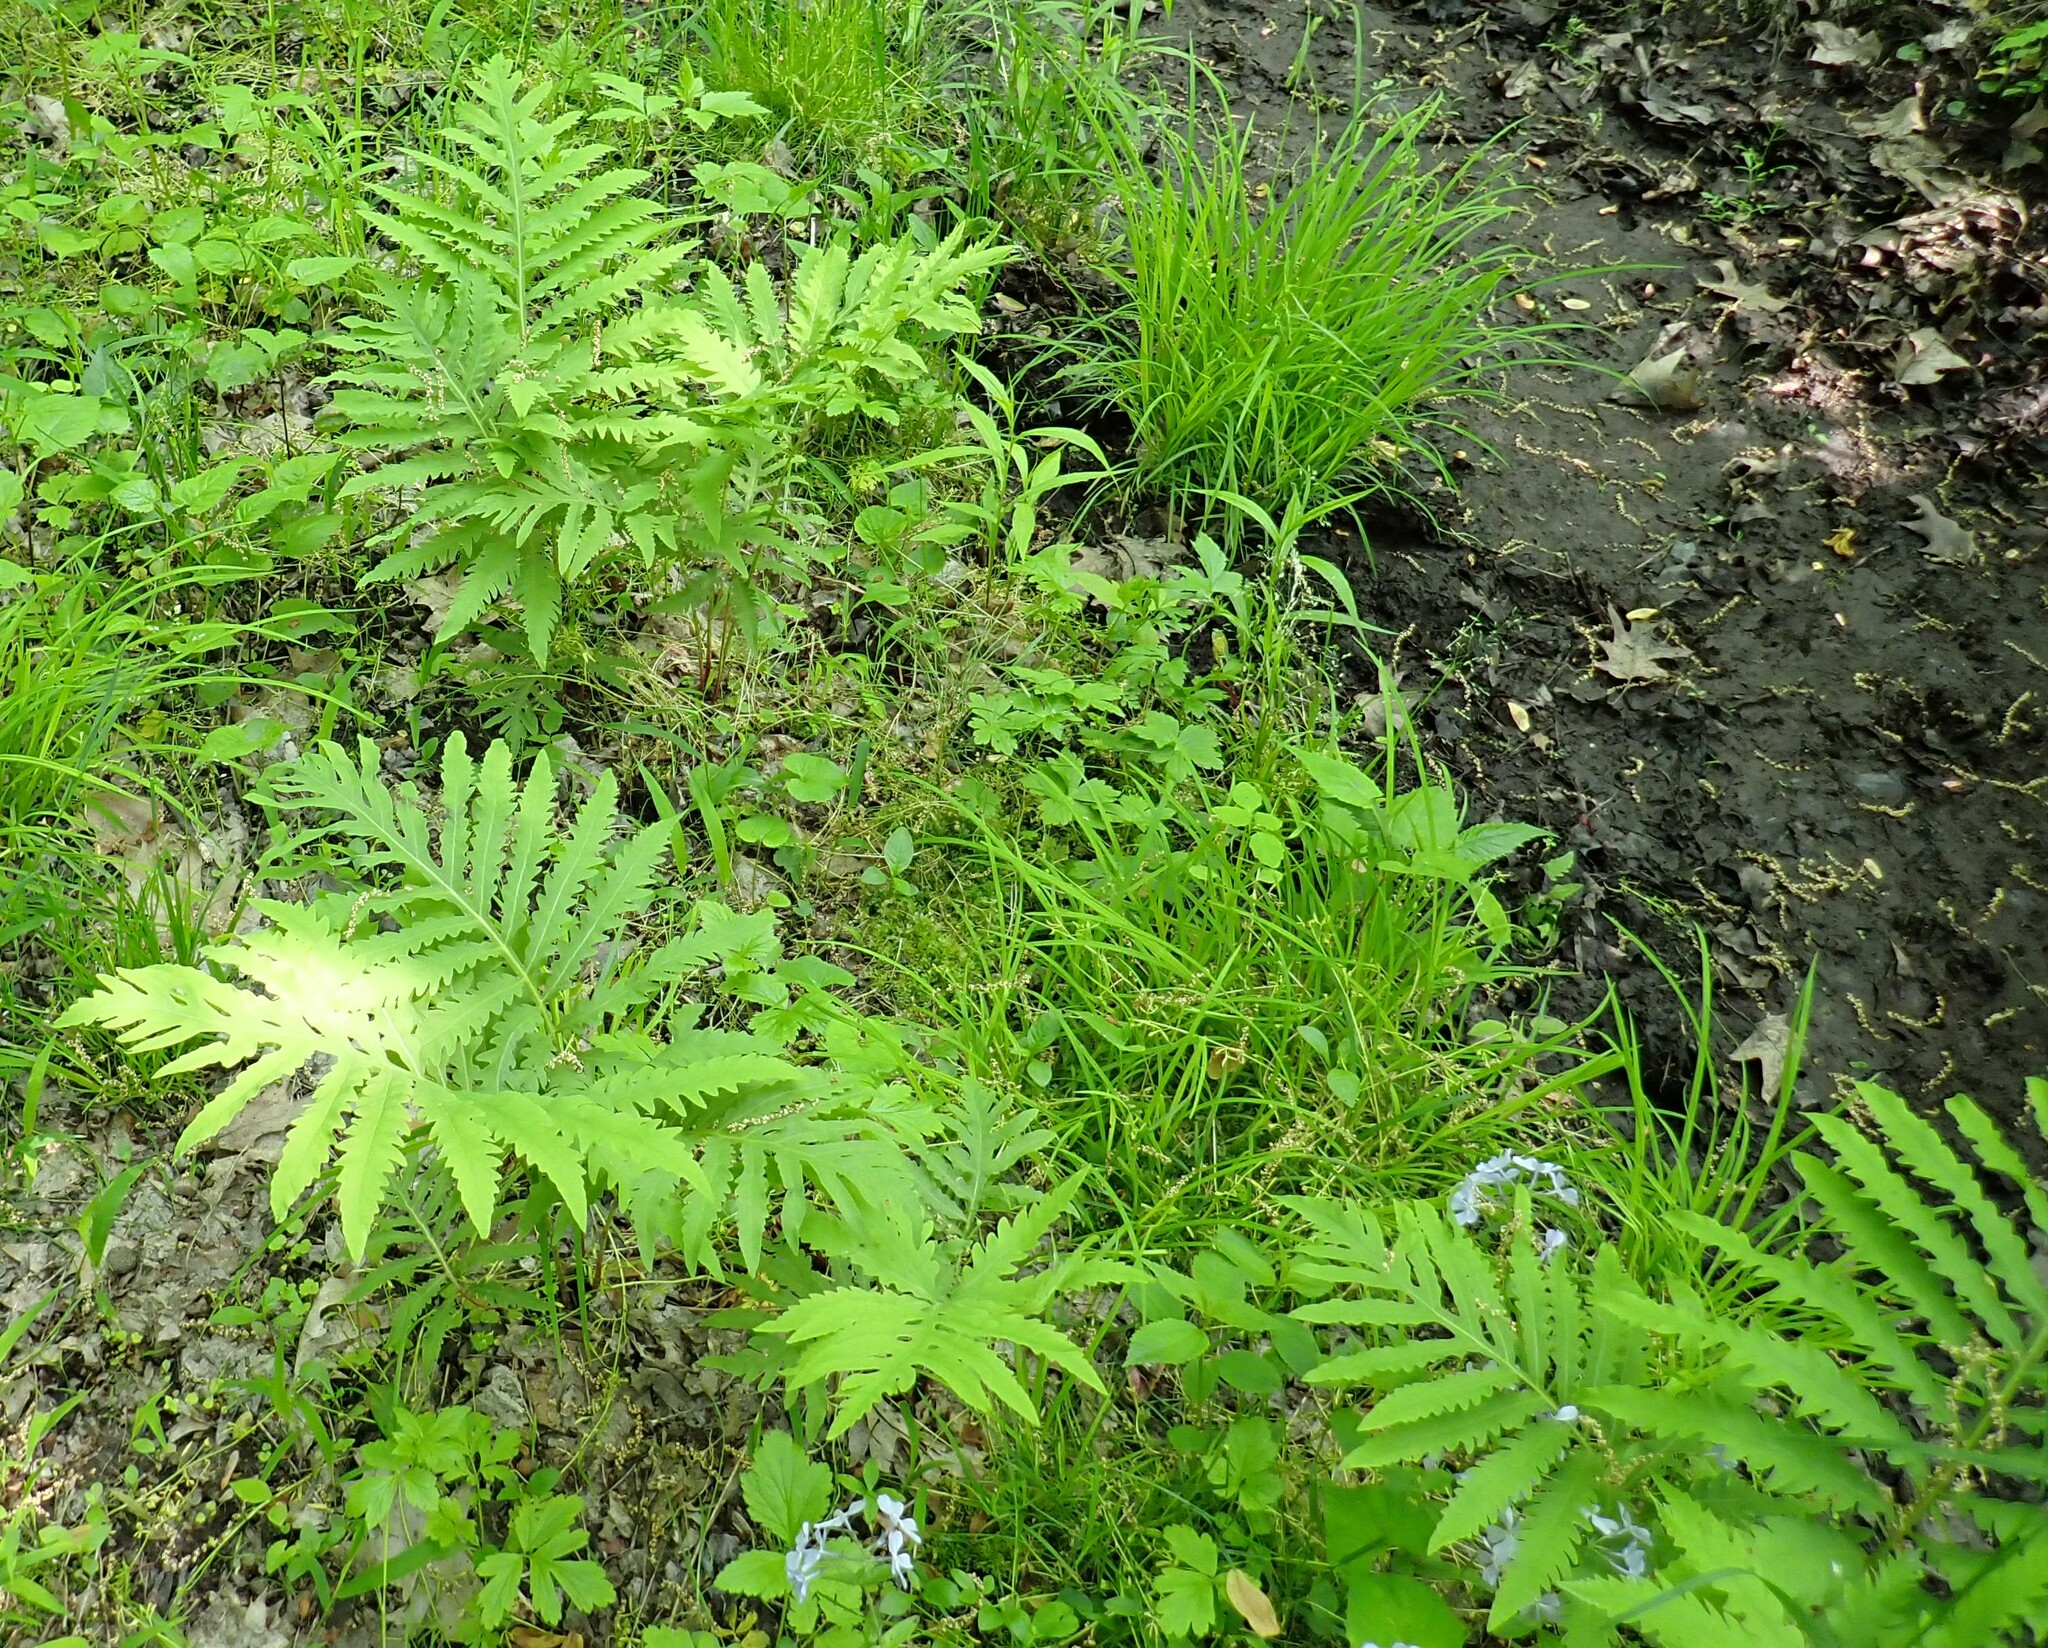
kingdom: Plantae
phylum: Tracheophyta
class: Polypodiopsida
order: Polypodiales
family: Onocleaceae
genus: Onoclea
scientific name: Onoclea sensibilis
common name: Sensitive fern
